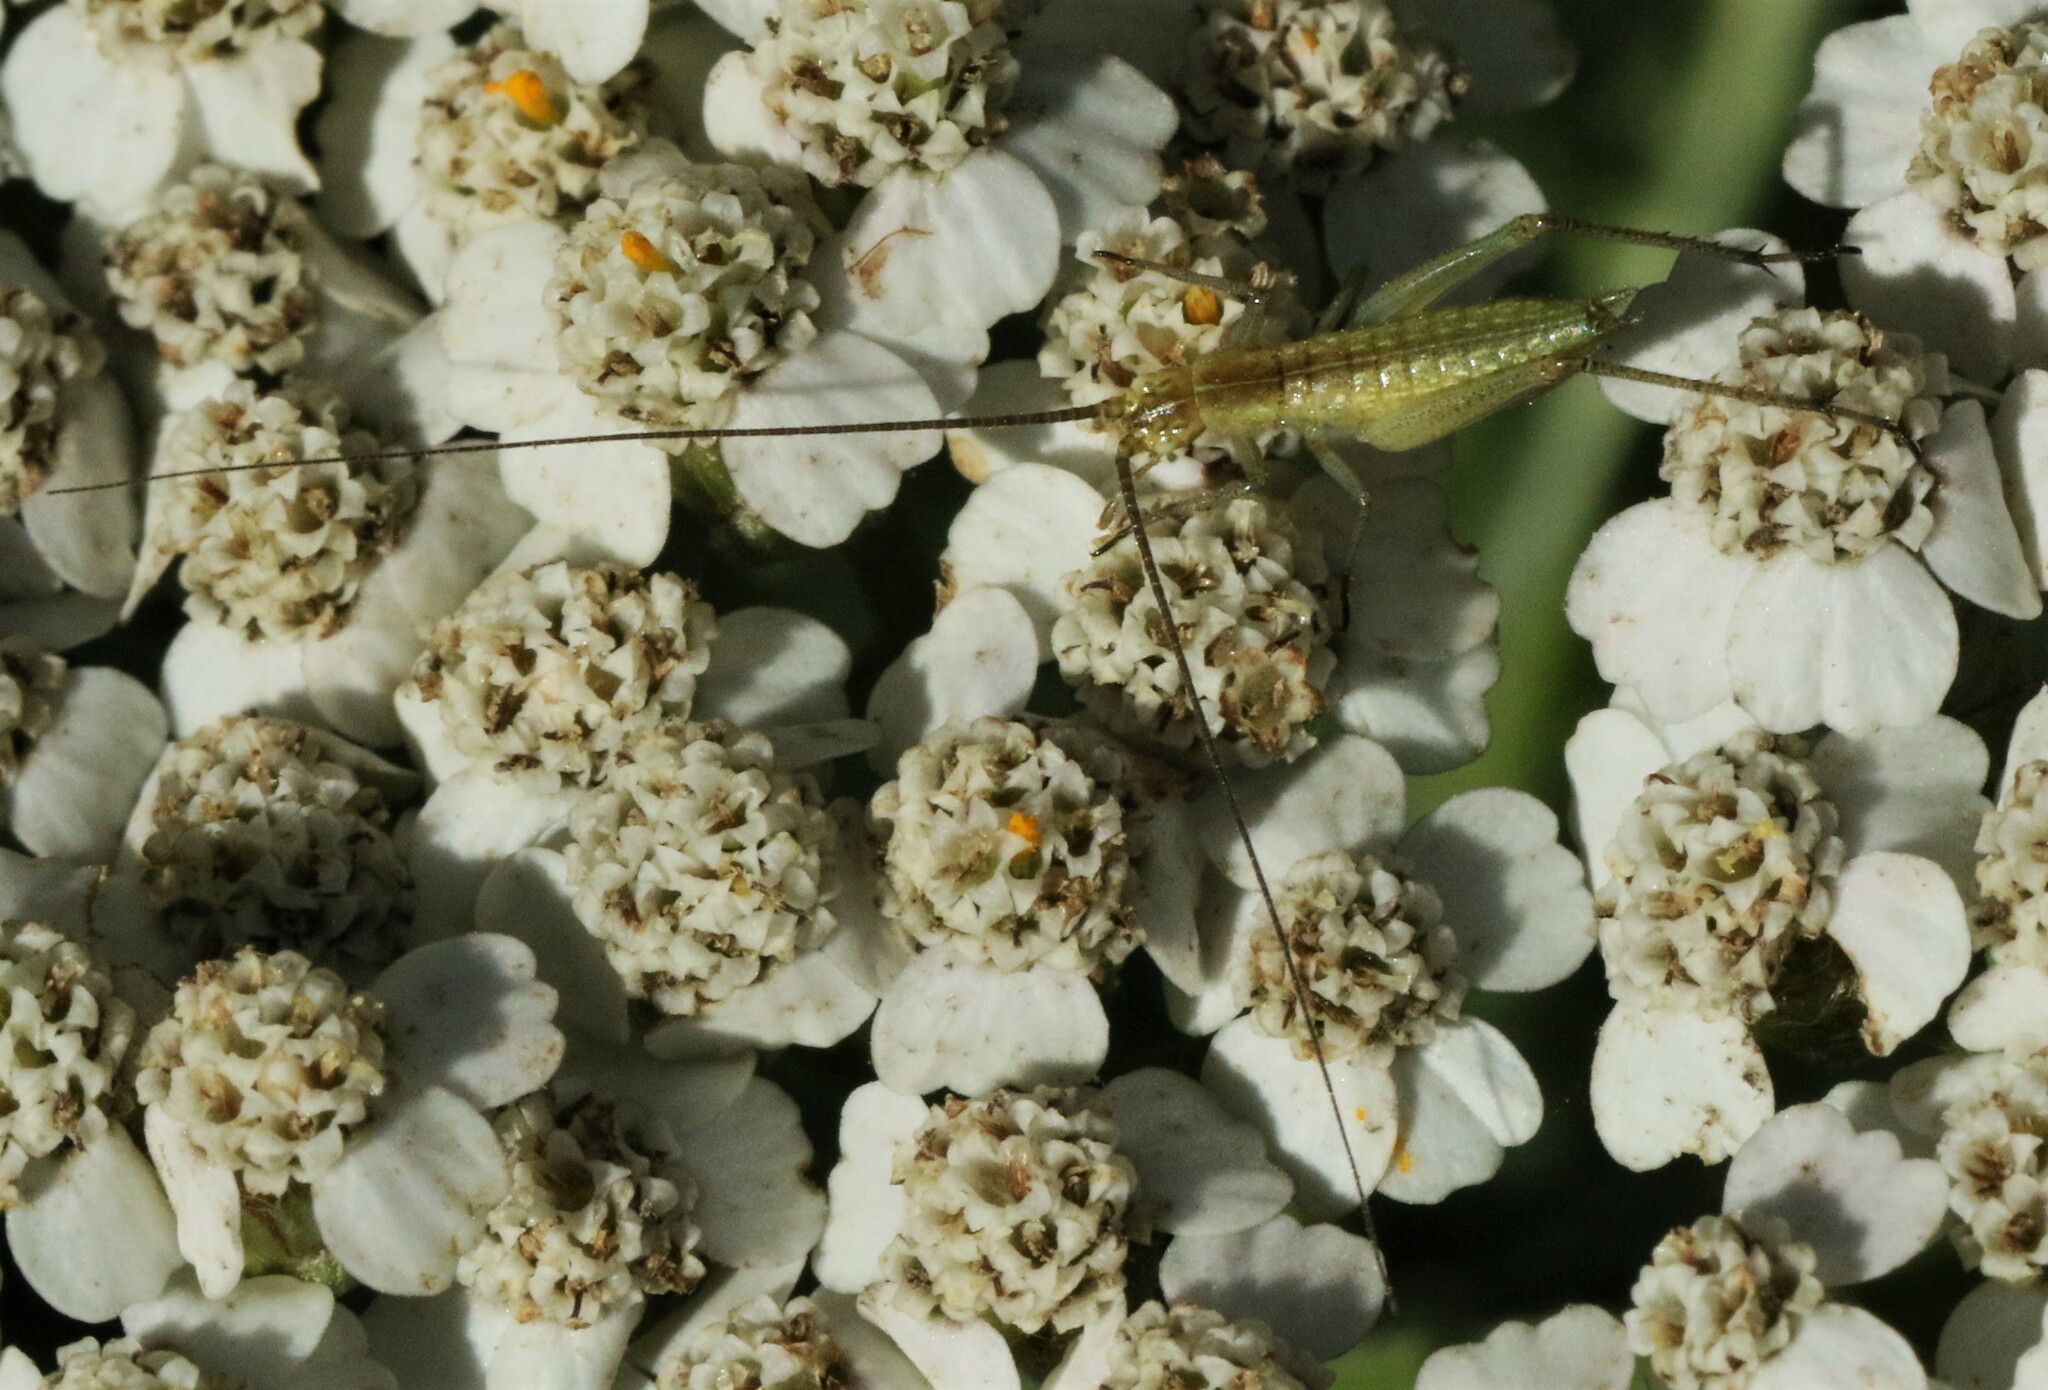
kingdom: Animalia
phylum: Arthropoda
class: Insecta
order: Orthoptera
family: Gryllidae
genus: Oecanthus
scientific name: Oecanthus nigricornis
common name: Black-horned tree cricket
